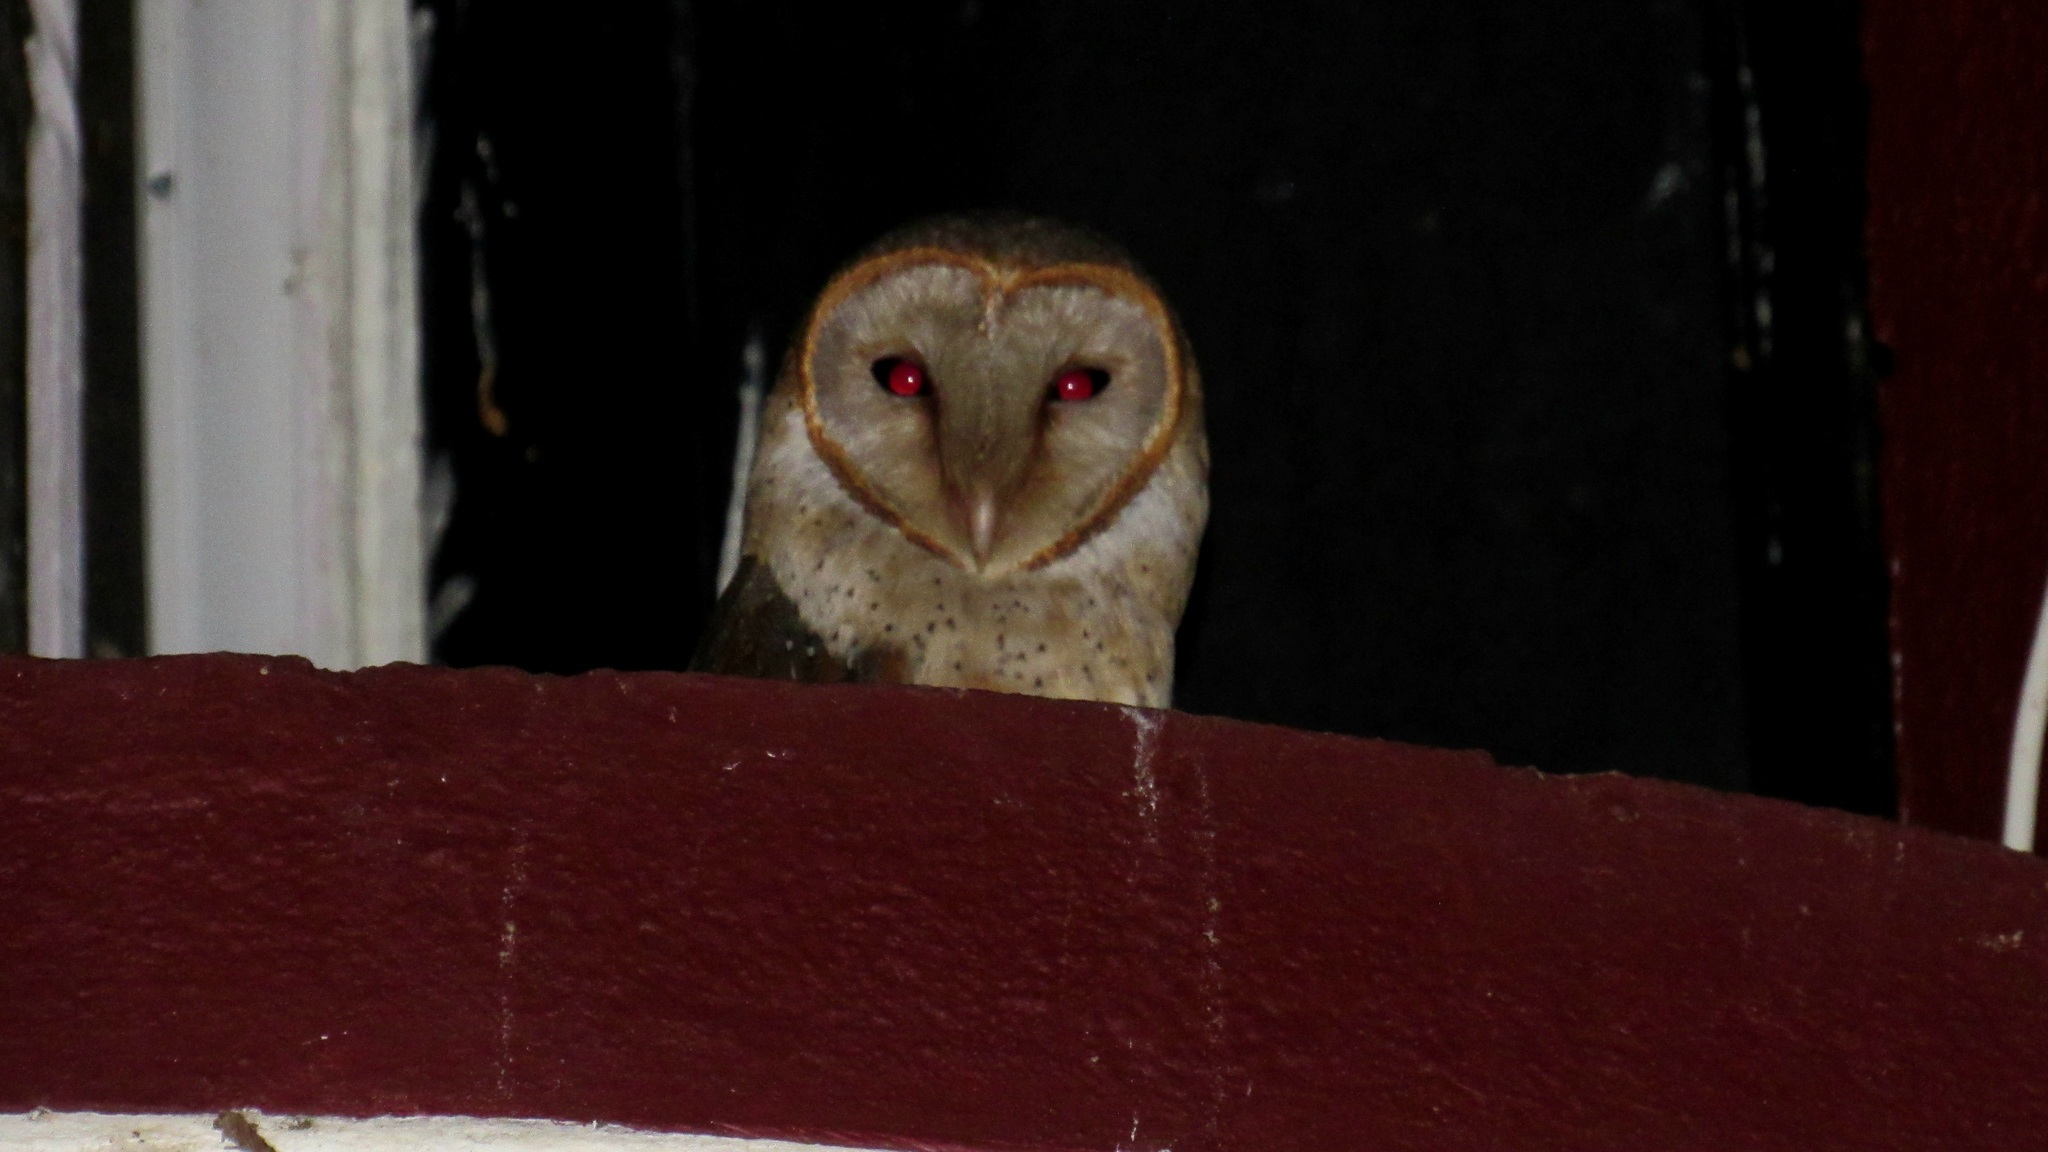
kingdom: Animalia
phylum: Chordata
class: Aves
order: Strigiformes
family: Tytonidae
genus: Tyto
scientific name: Tyto alba
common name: Barn owl
